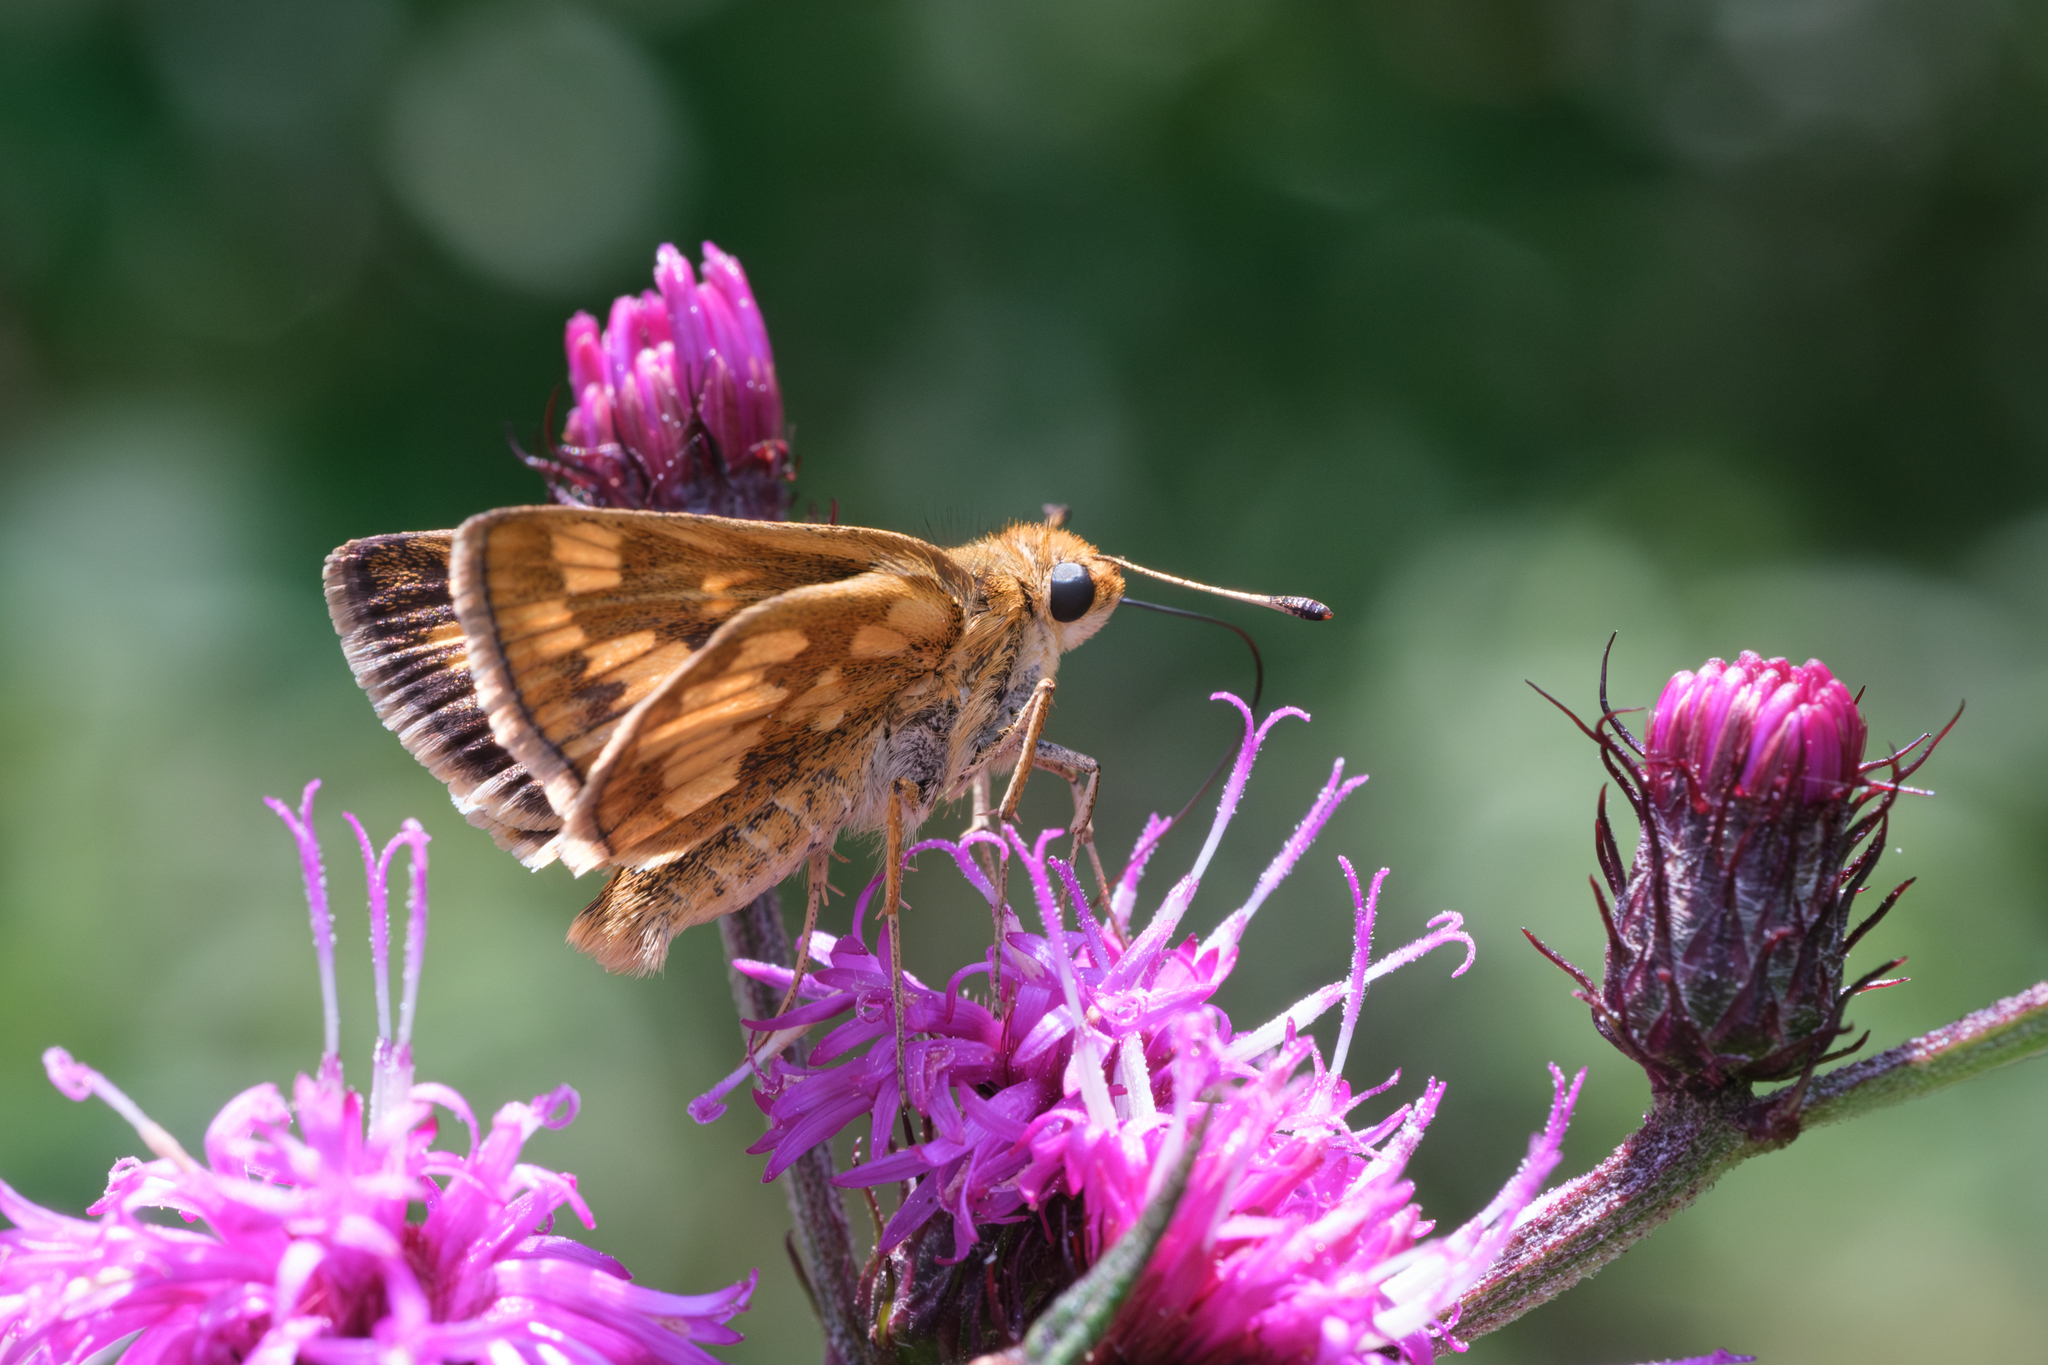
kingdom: Animalia
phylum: Arthropoda
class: Insecta
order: Lepidoptera
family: Hesperiidae
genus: Polites
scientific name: Polites coras
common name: Peck's skipper
